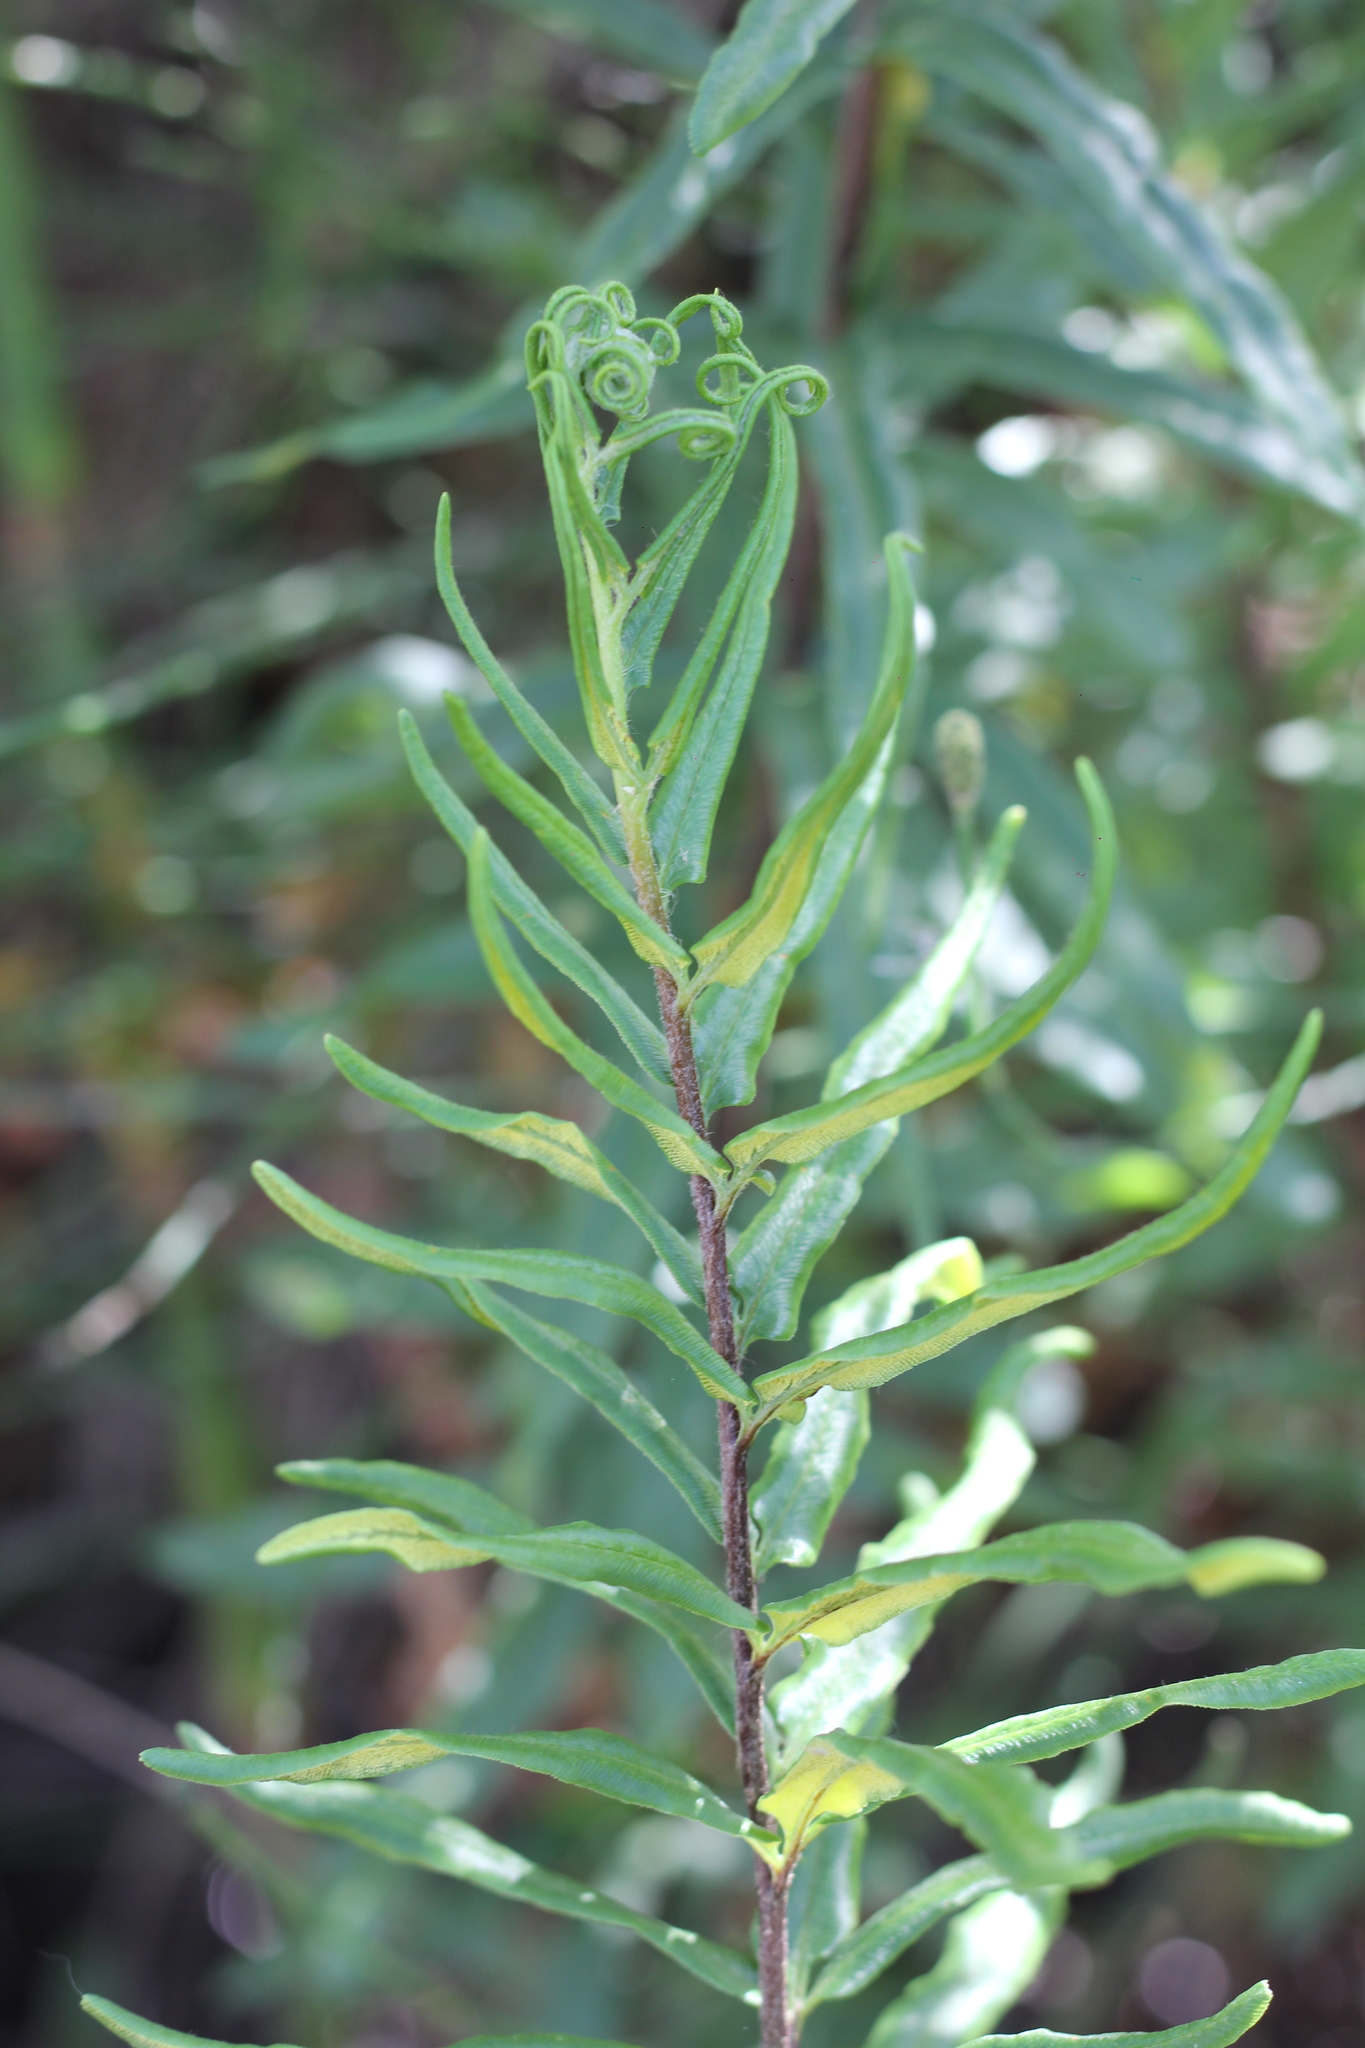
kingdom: Plantae
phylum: Tracheophyta
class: Polypodiopsida
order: Polypodiales
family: Pteridaceae
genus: Pityrogramma
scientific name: Pityrogramma trifoliata
